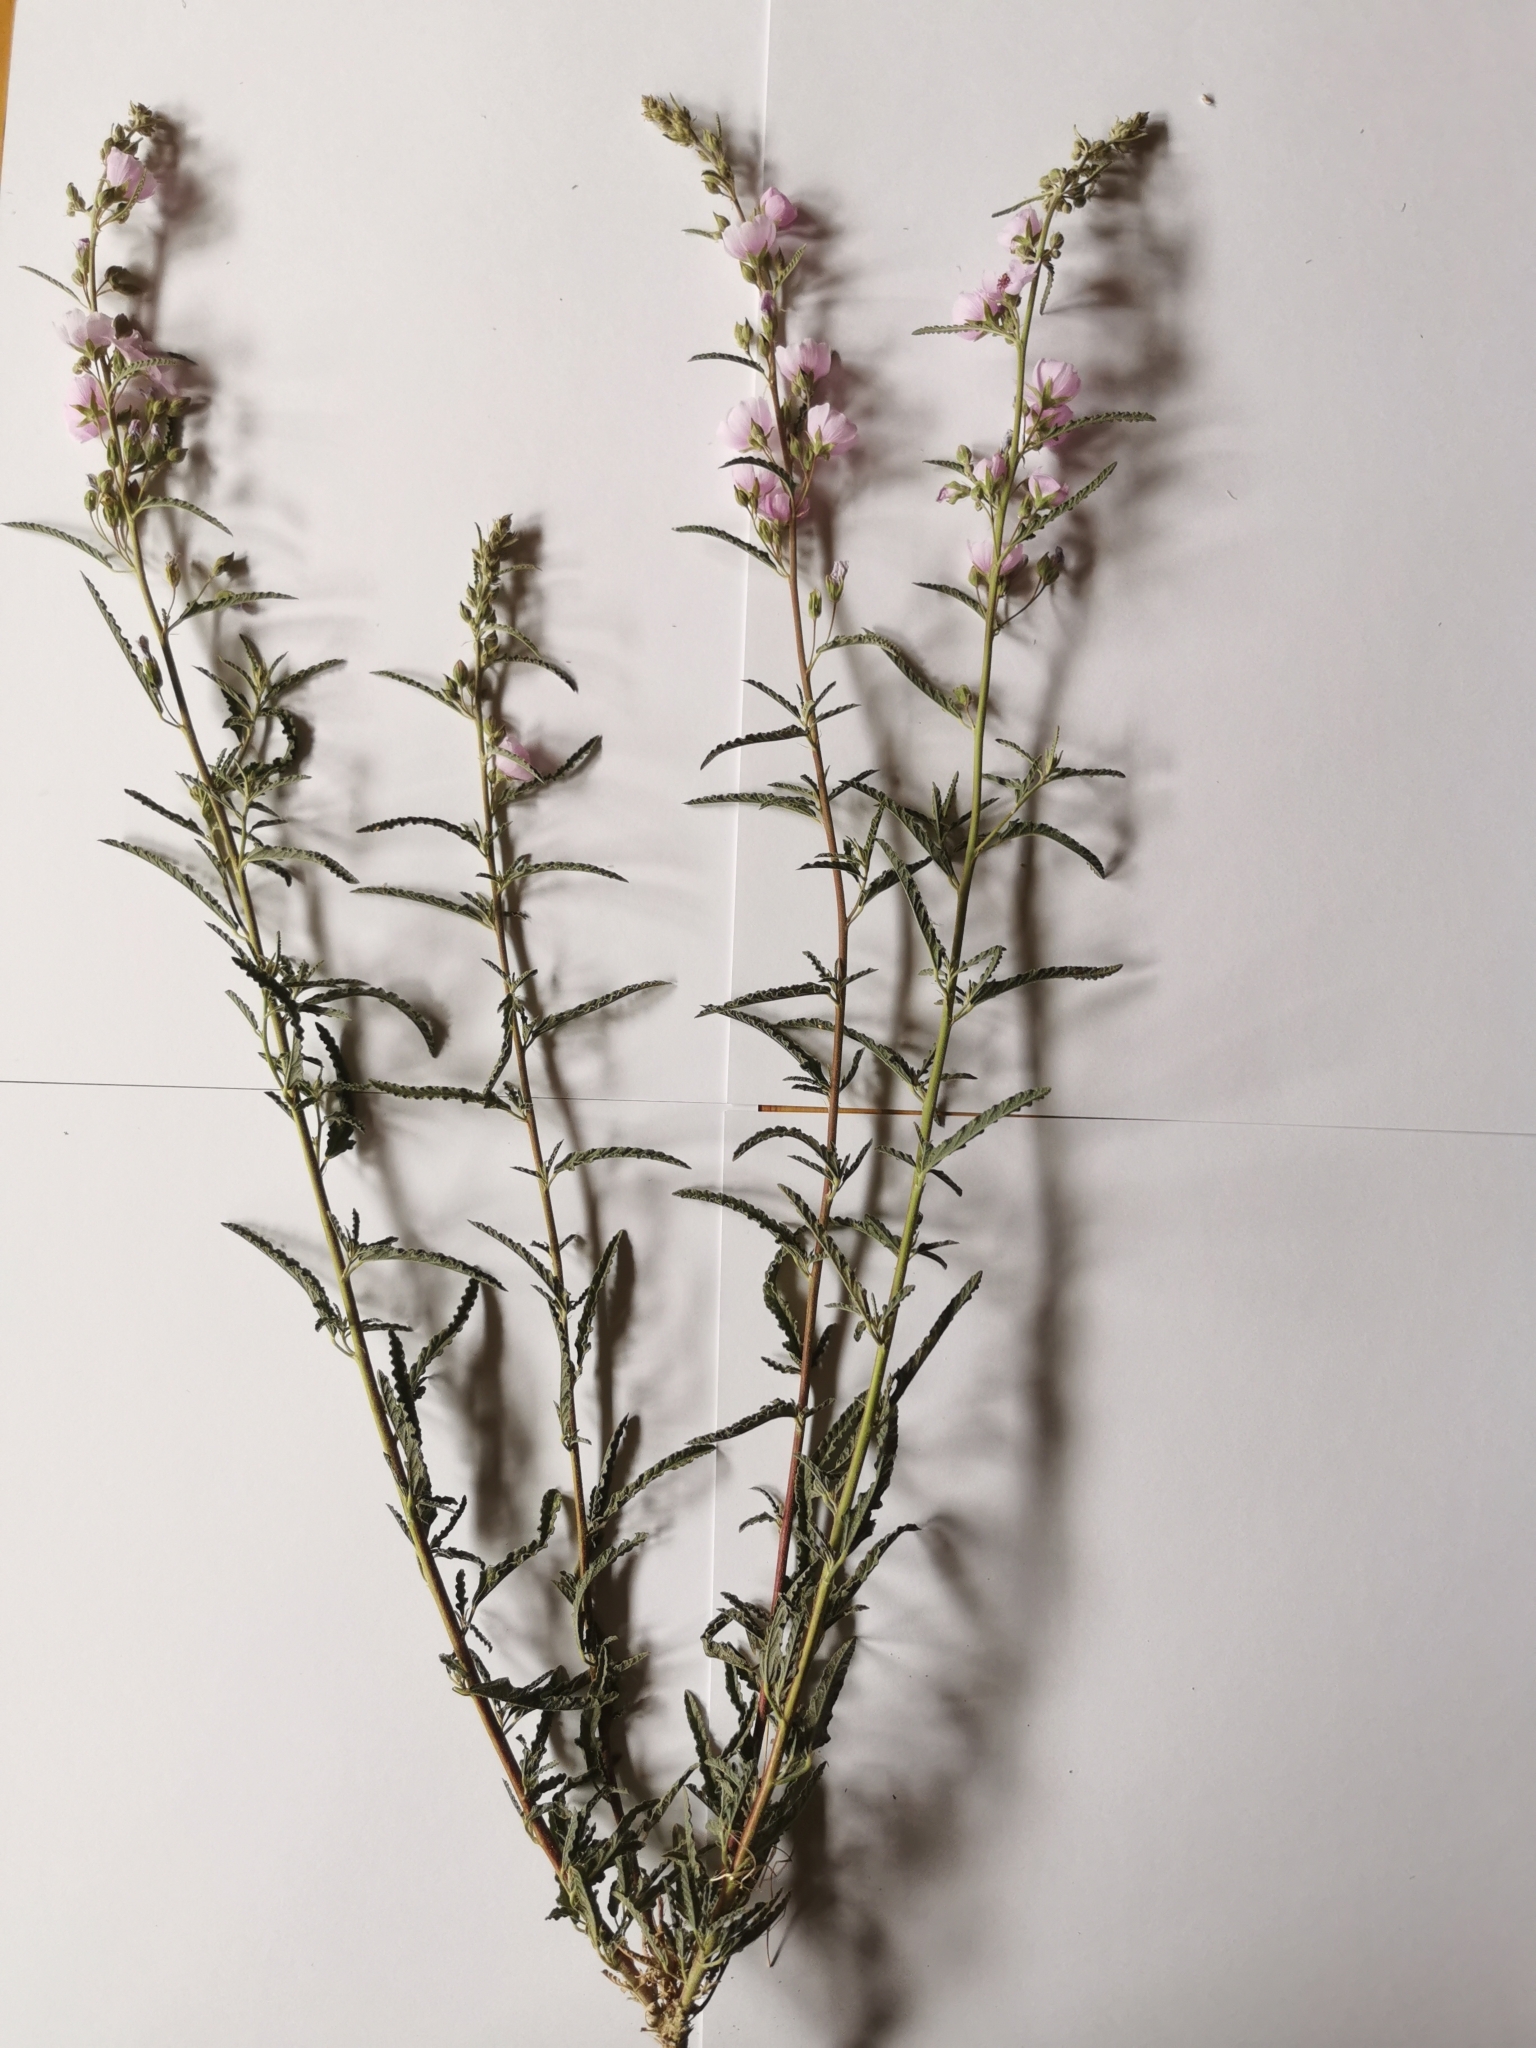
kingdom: Plantae
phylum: Tracheophyta
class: Magnoliopsida
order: Malvales
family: Malvaceae
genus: Sphaeralcea
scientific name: Sphaeralcea angustifolia
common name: Copper globe-mallow
